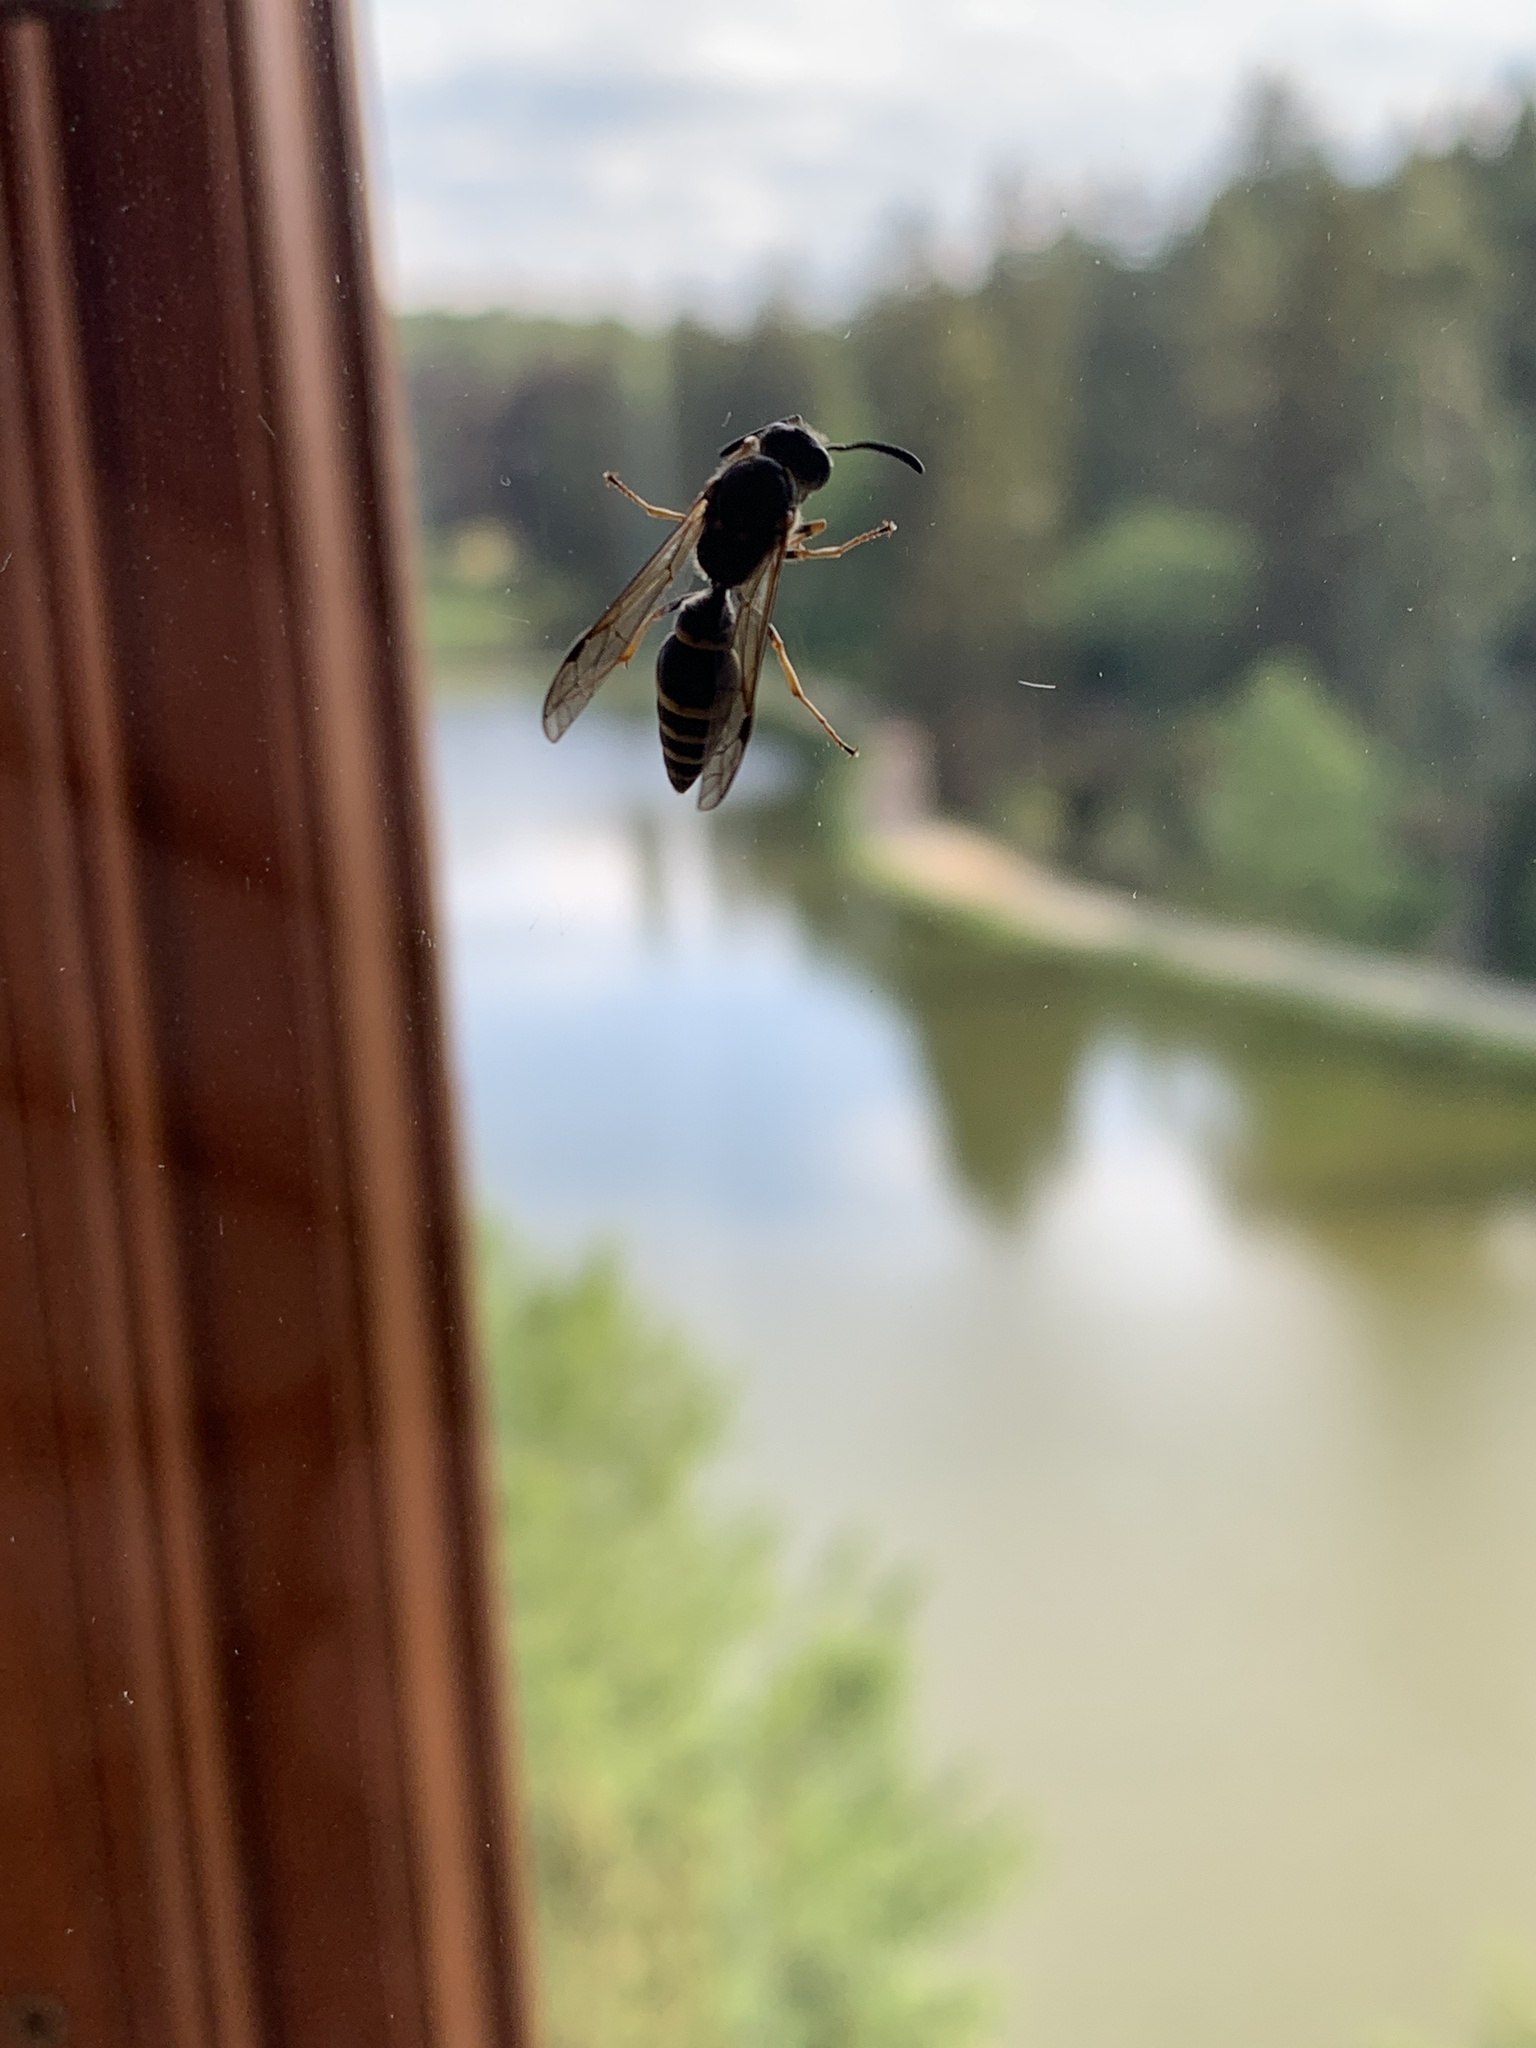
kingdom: Animalia
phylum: Arthropoda
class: Insecta
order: Hymenoptera
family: Eumenidae
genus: Symmorphus
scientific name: Symmorphus
